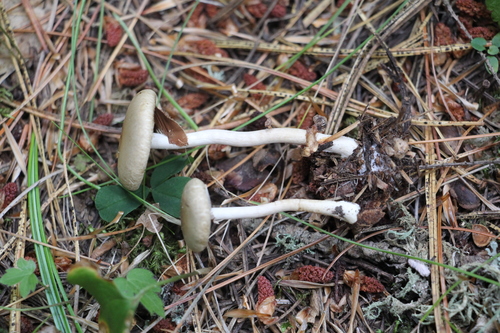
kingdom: Fungi
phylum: Basidiomycota
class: Agaricomycetes
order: Agaricales
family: Strophariaceae
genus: Agrocybe
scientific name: Agrocybe praecox
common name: Spring fieldcap
